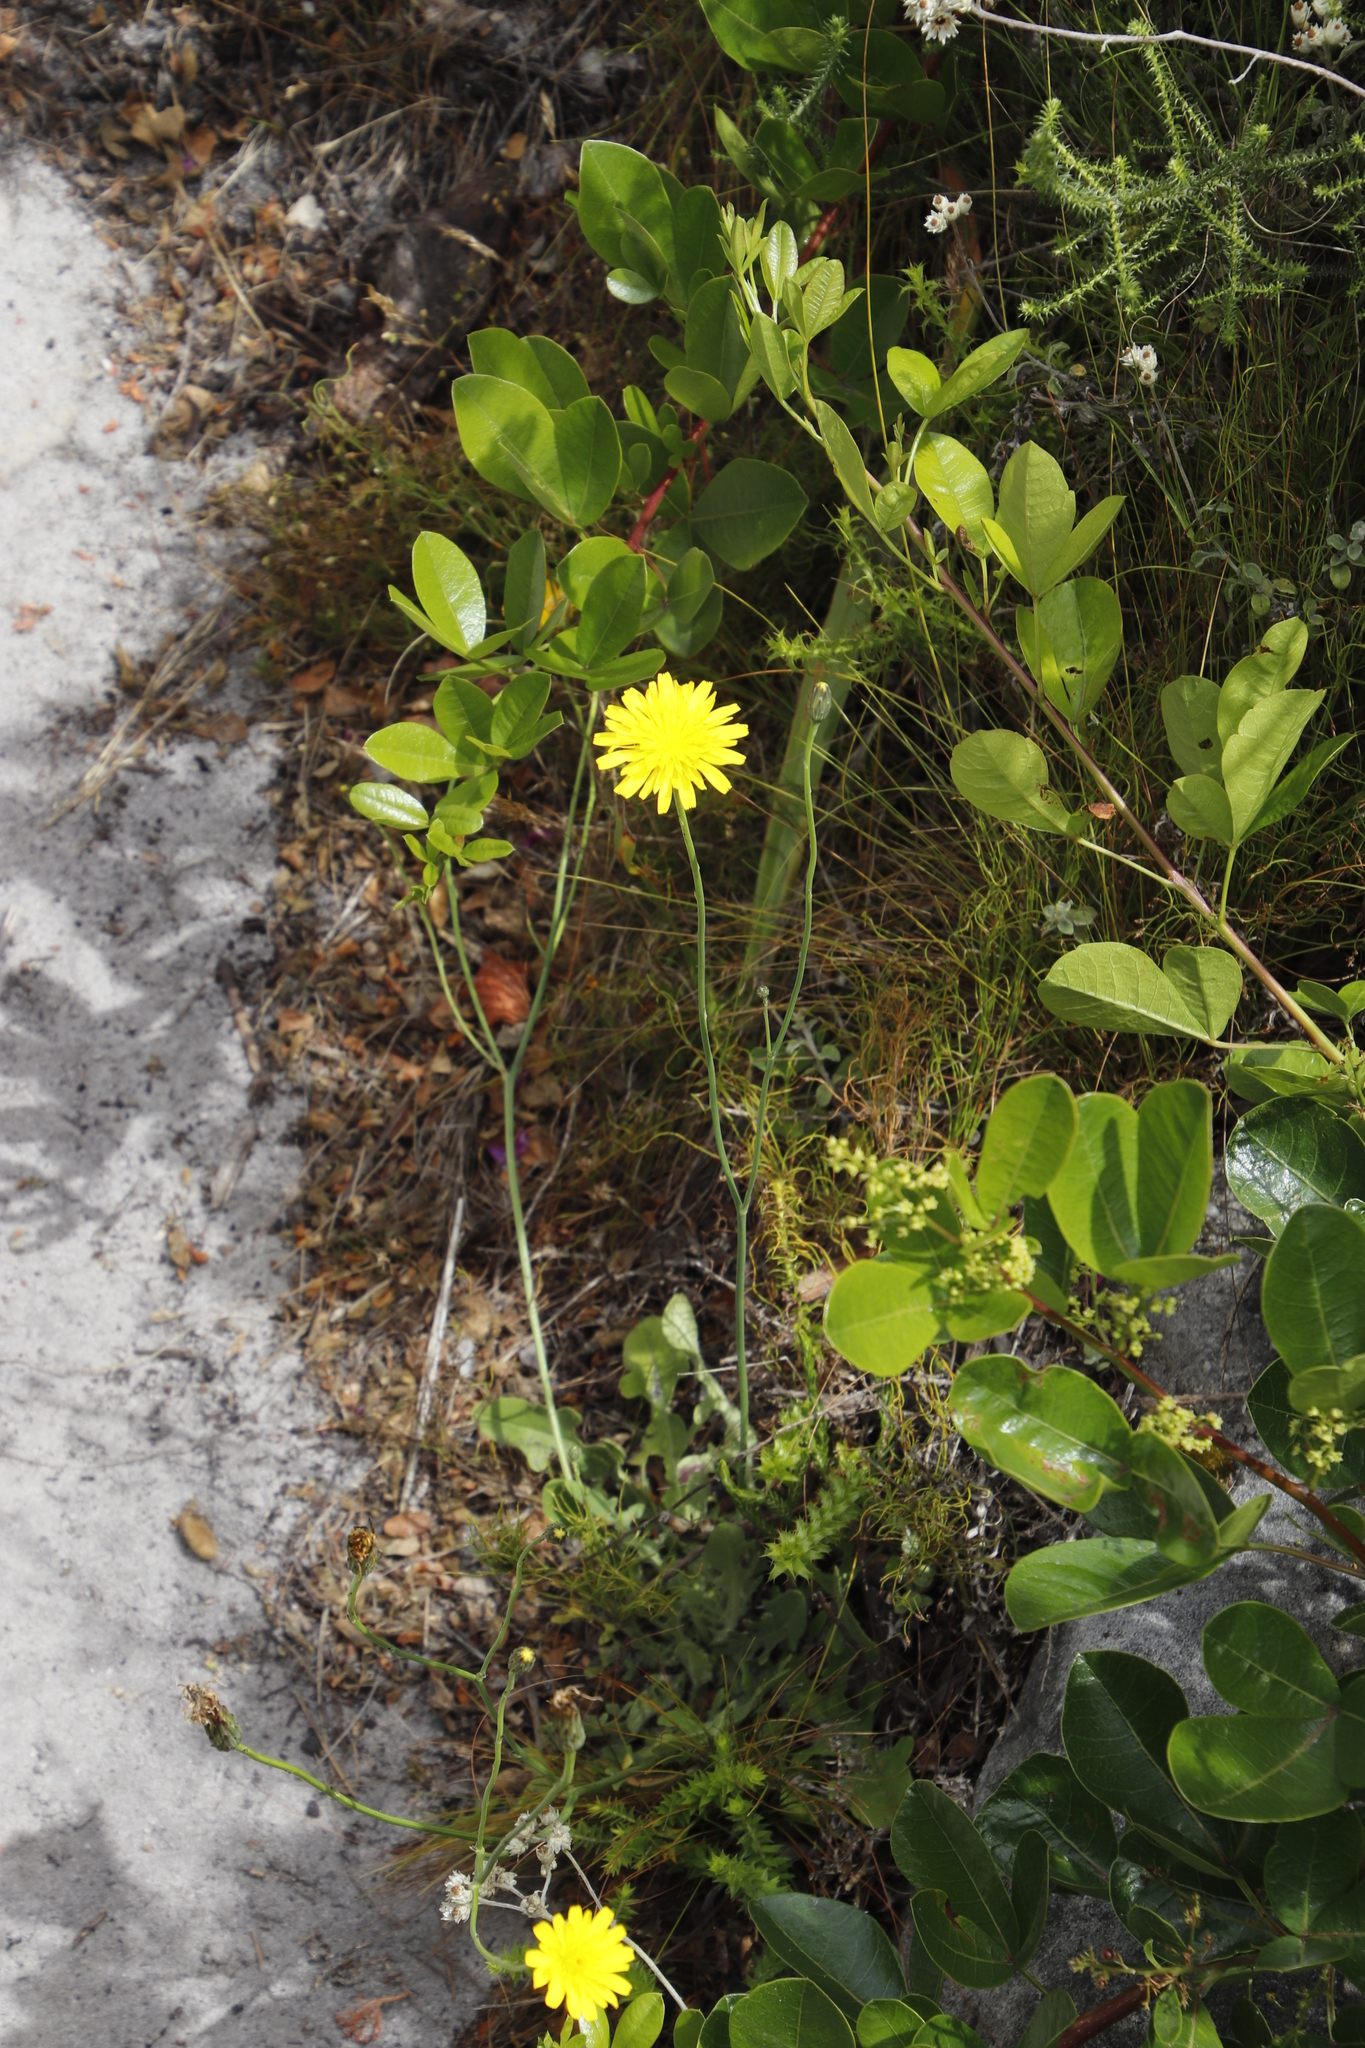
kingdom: Plantae
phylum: Tracheophyta
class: Magnoliopsida
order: Asterales
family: Asteraceae
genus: Hypochaeris
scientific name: Hypochaeris radicata
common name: Flatweed
